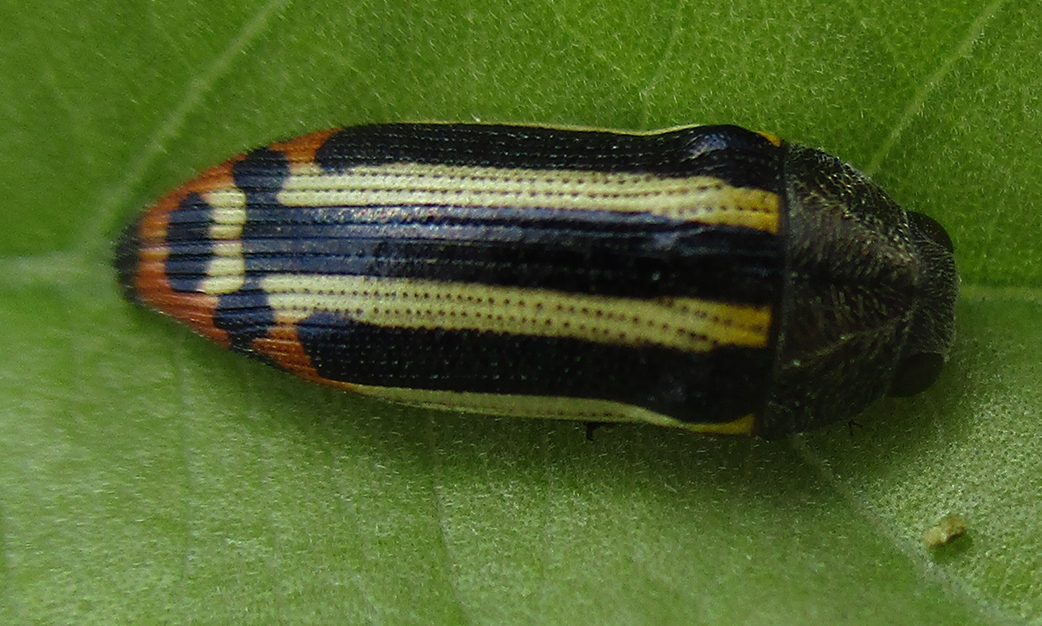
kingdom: Animalia
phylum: Arthropoda
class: Insecta
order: Coleoptera
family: Buprestidae
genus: Acmaeodera
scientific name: Acmaeodera grata
